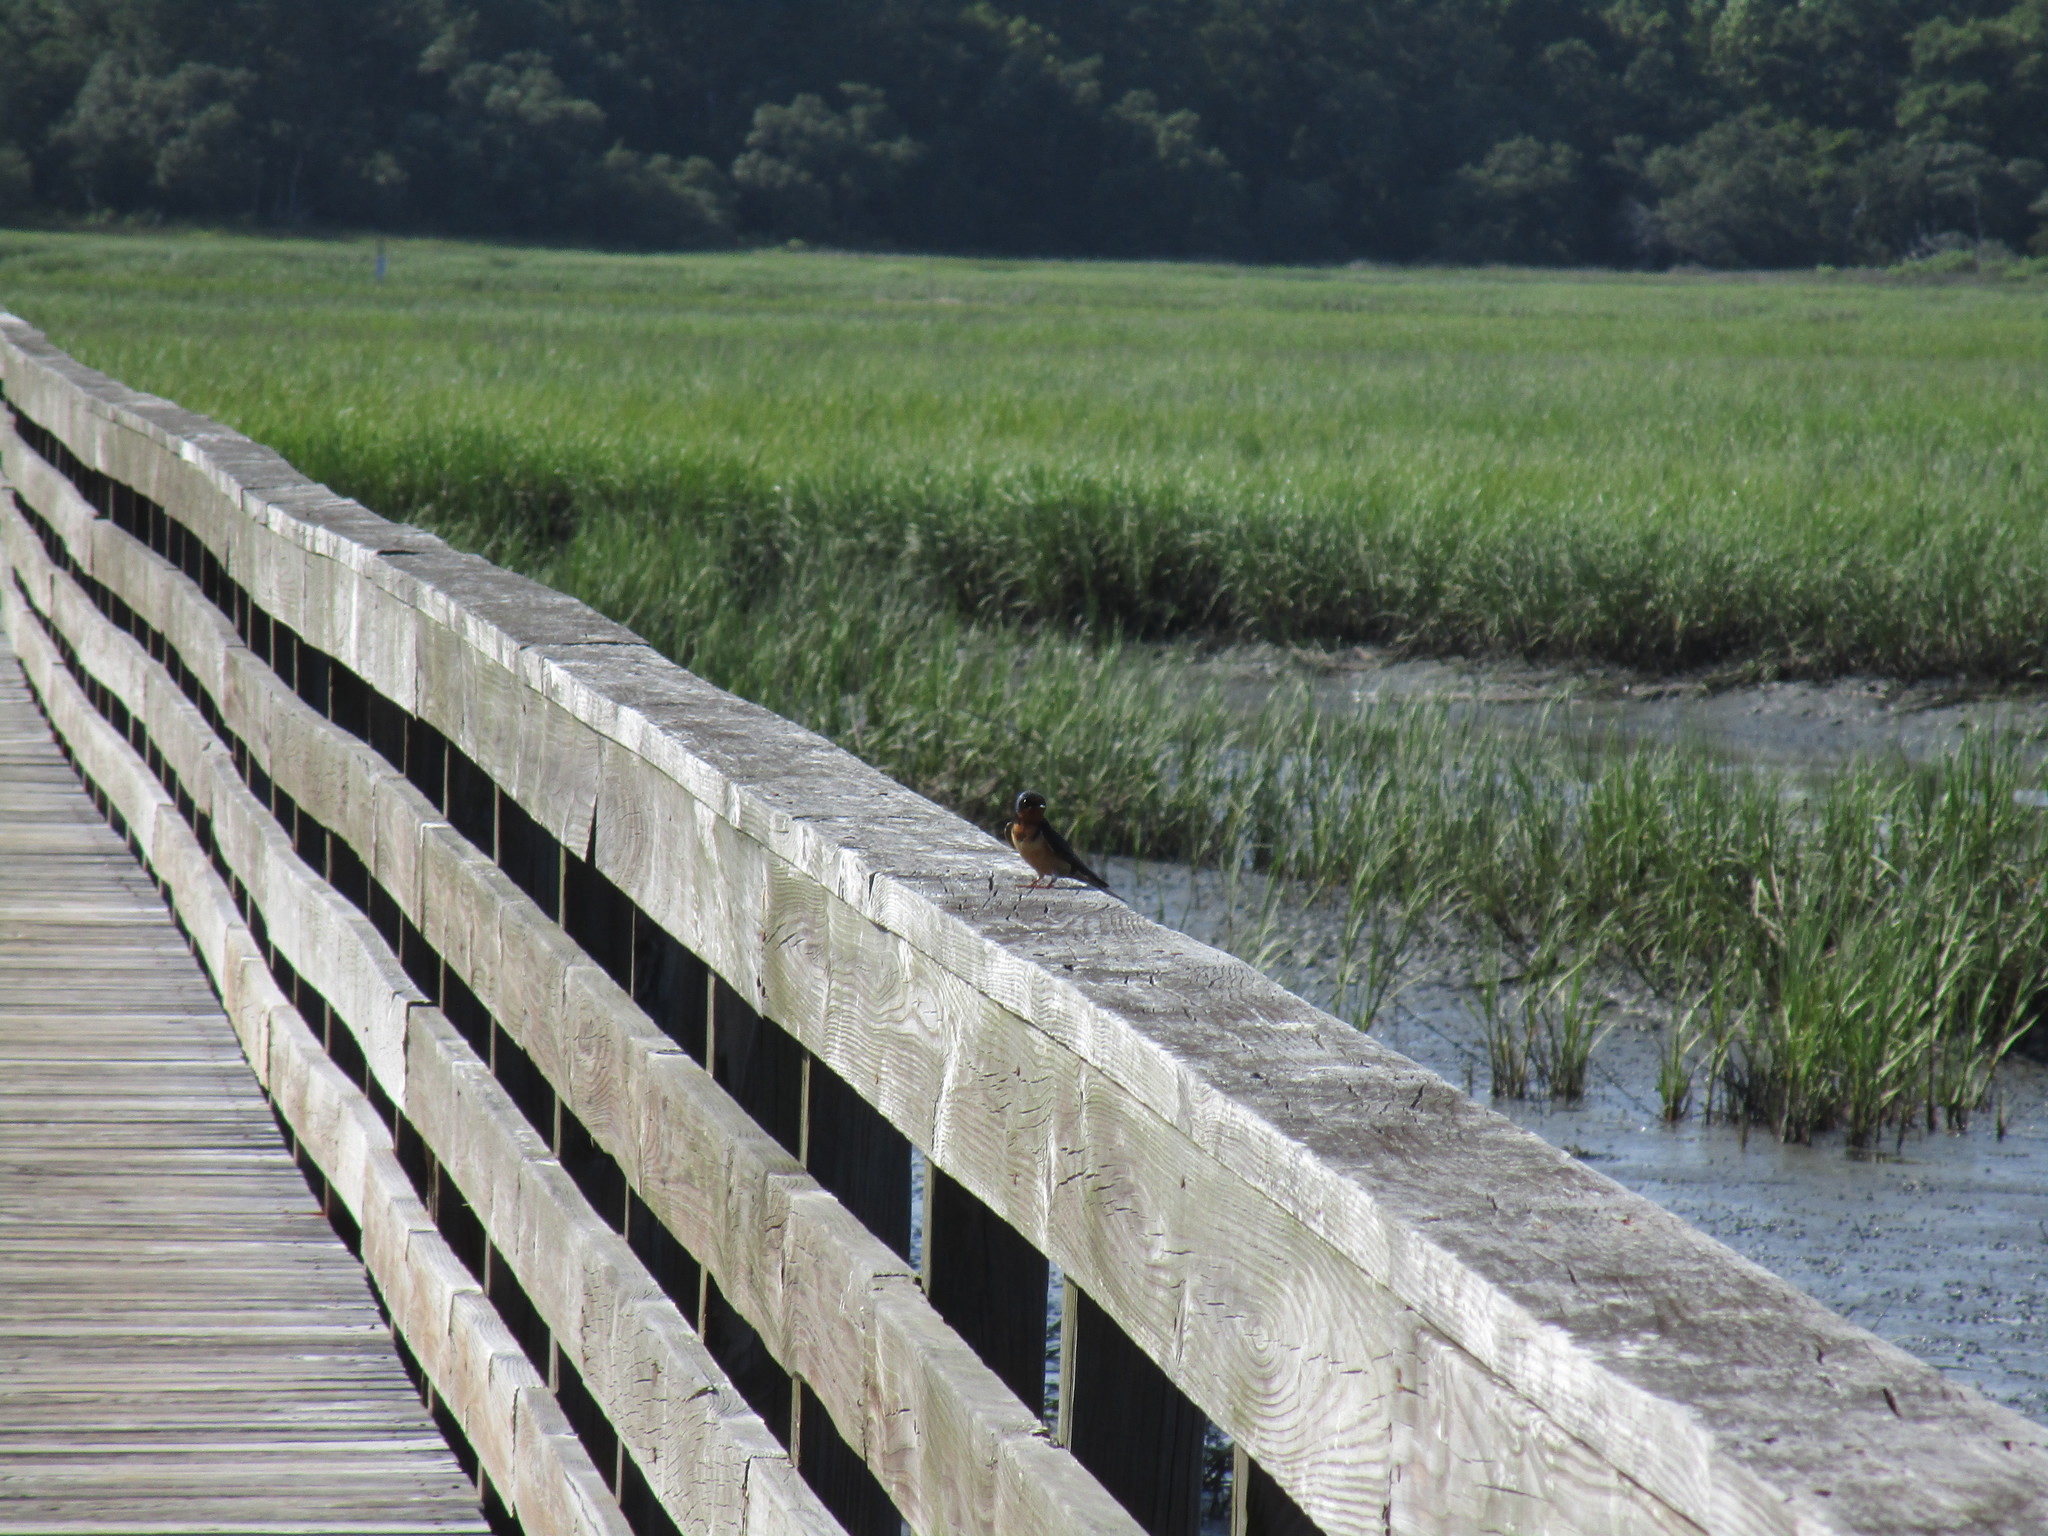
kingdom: Animalia
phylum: Chordata
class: Aves
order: Passeriformes
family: Hirundinidae
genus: Hirundo
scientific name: Hirundo rustica
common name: Barn swallow
